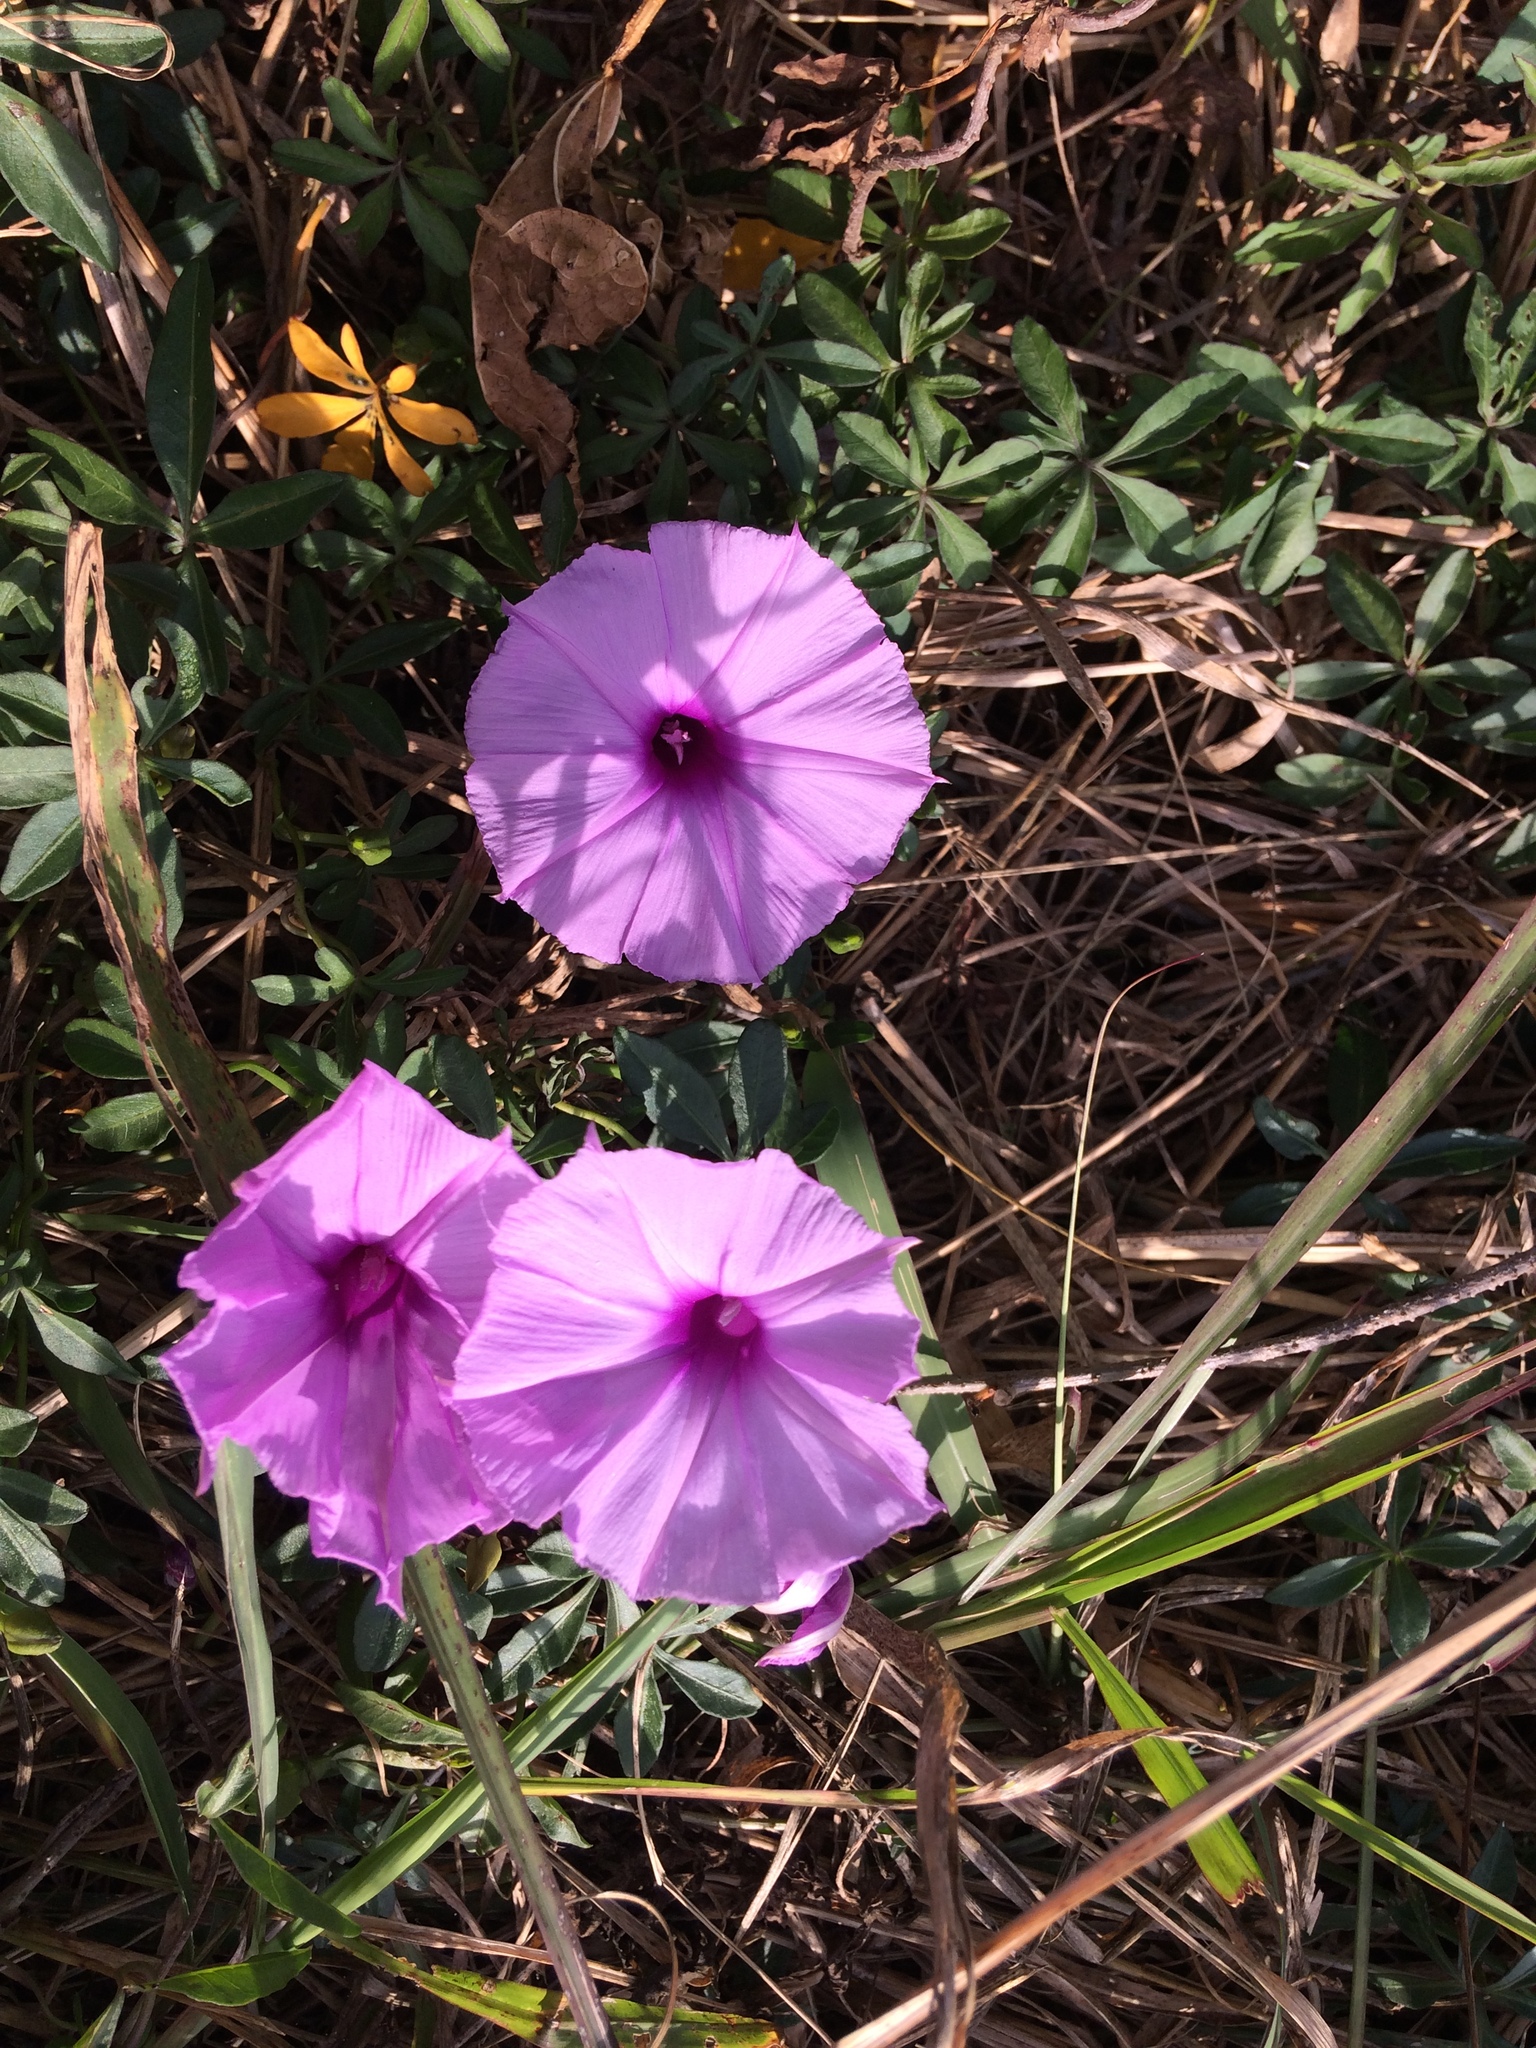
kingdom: Plantae
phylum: Tracheophyta
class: Magnoliopsida
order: Solanales
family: Convolvulaceae
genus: Ipomoea
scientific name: Ipomoea cairica
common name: Mile a minute vine
